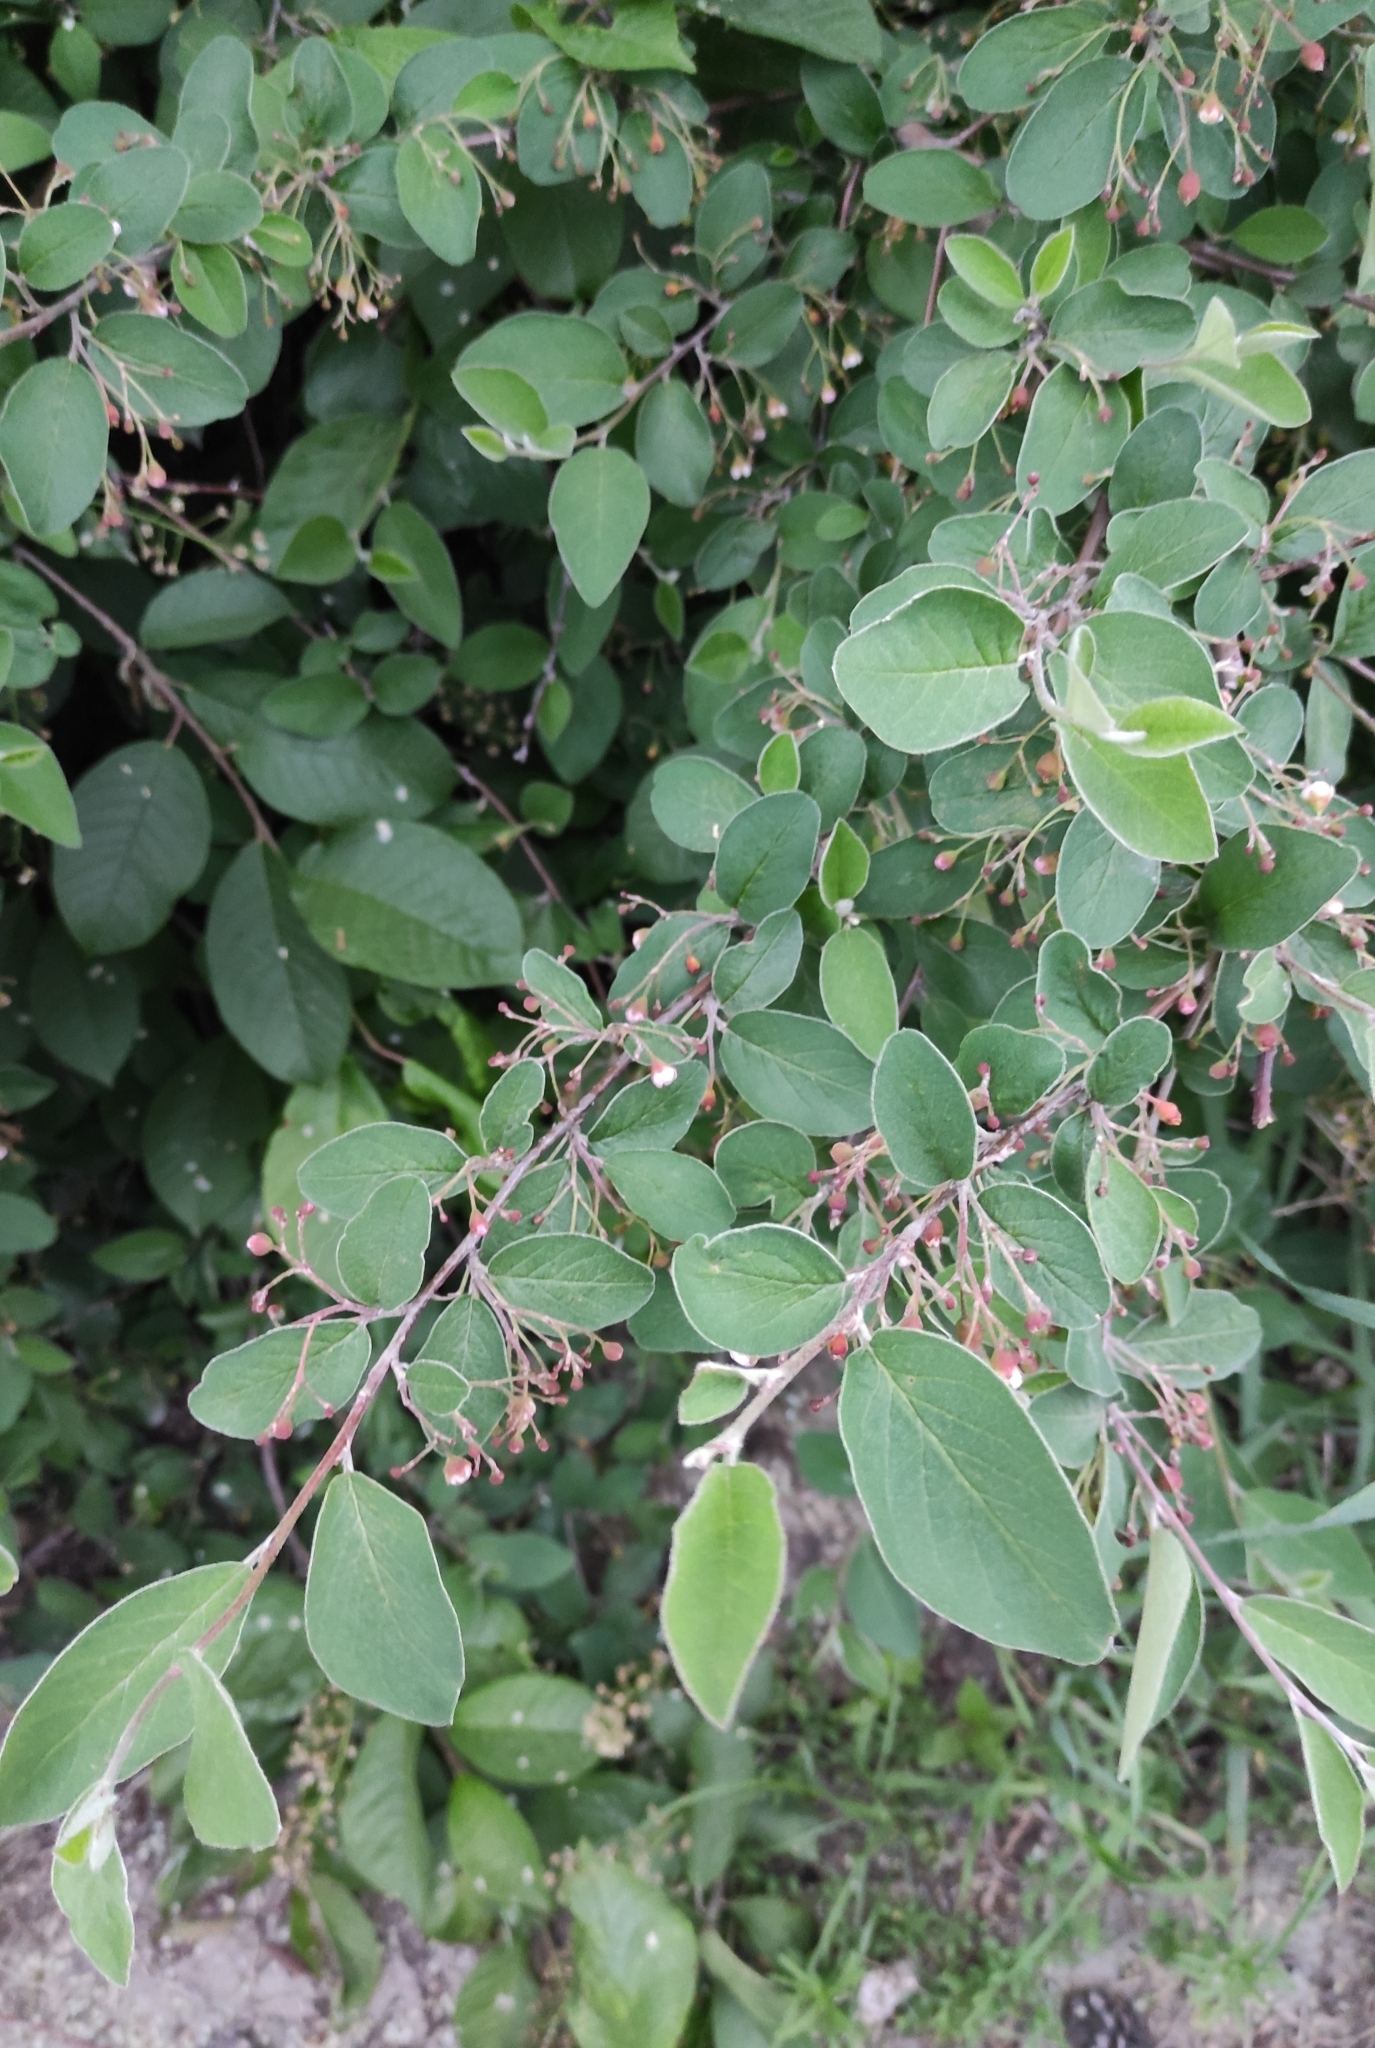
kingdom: Plantae
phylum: Tracheophyta
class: Magnoliopsida
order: Rosales
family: Rosaceae
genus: Cotoneaster
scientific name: Cotoneaster melanocarpus
